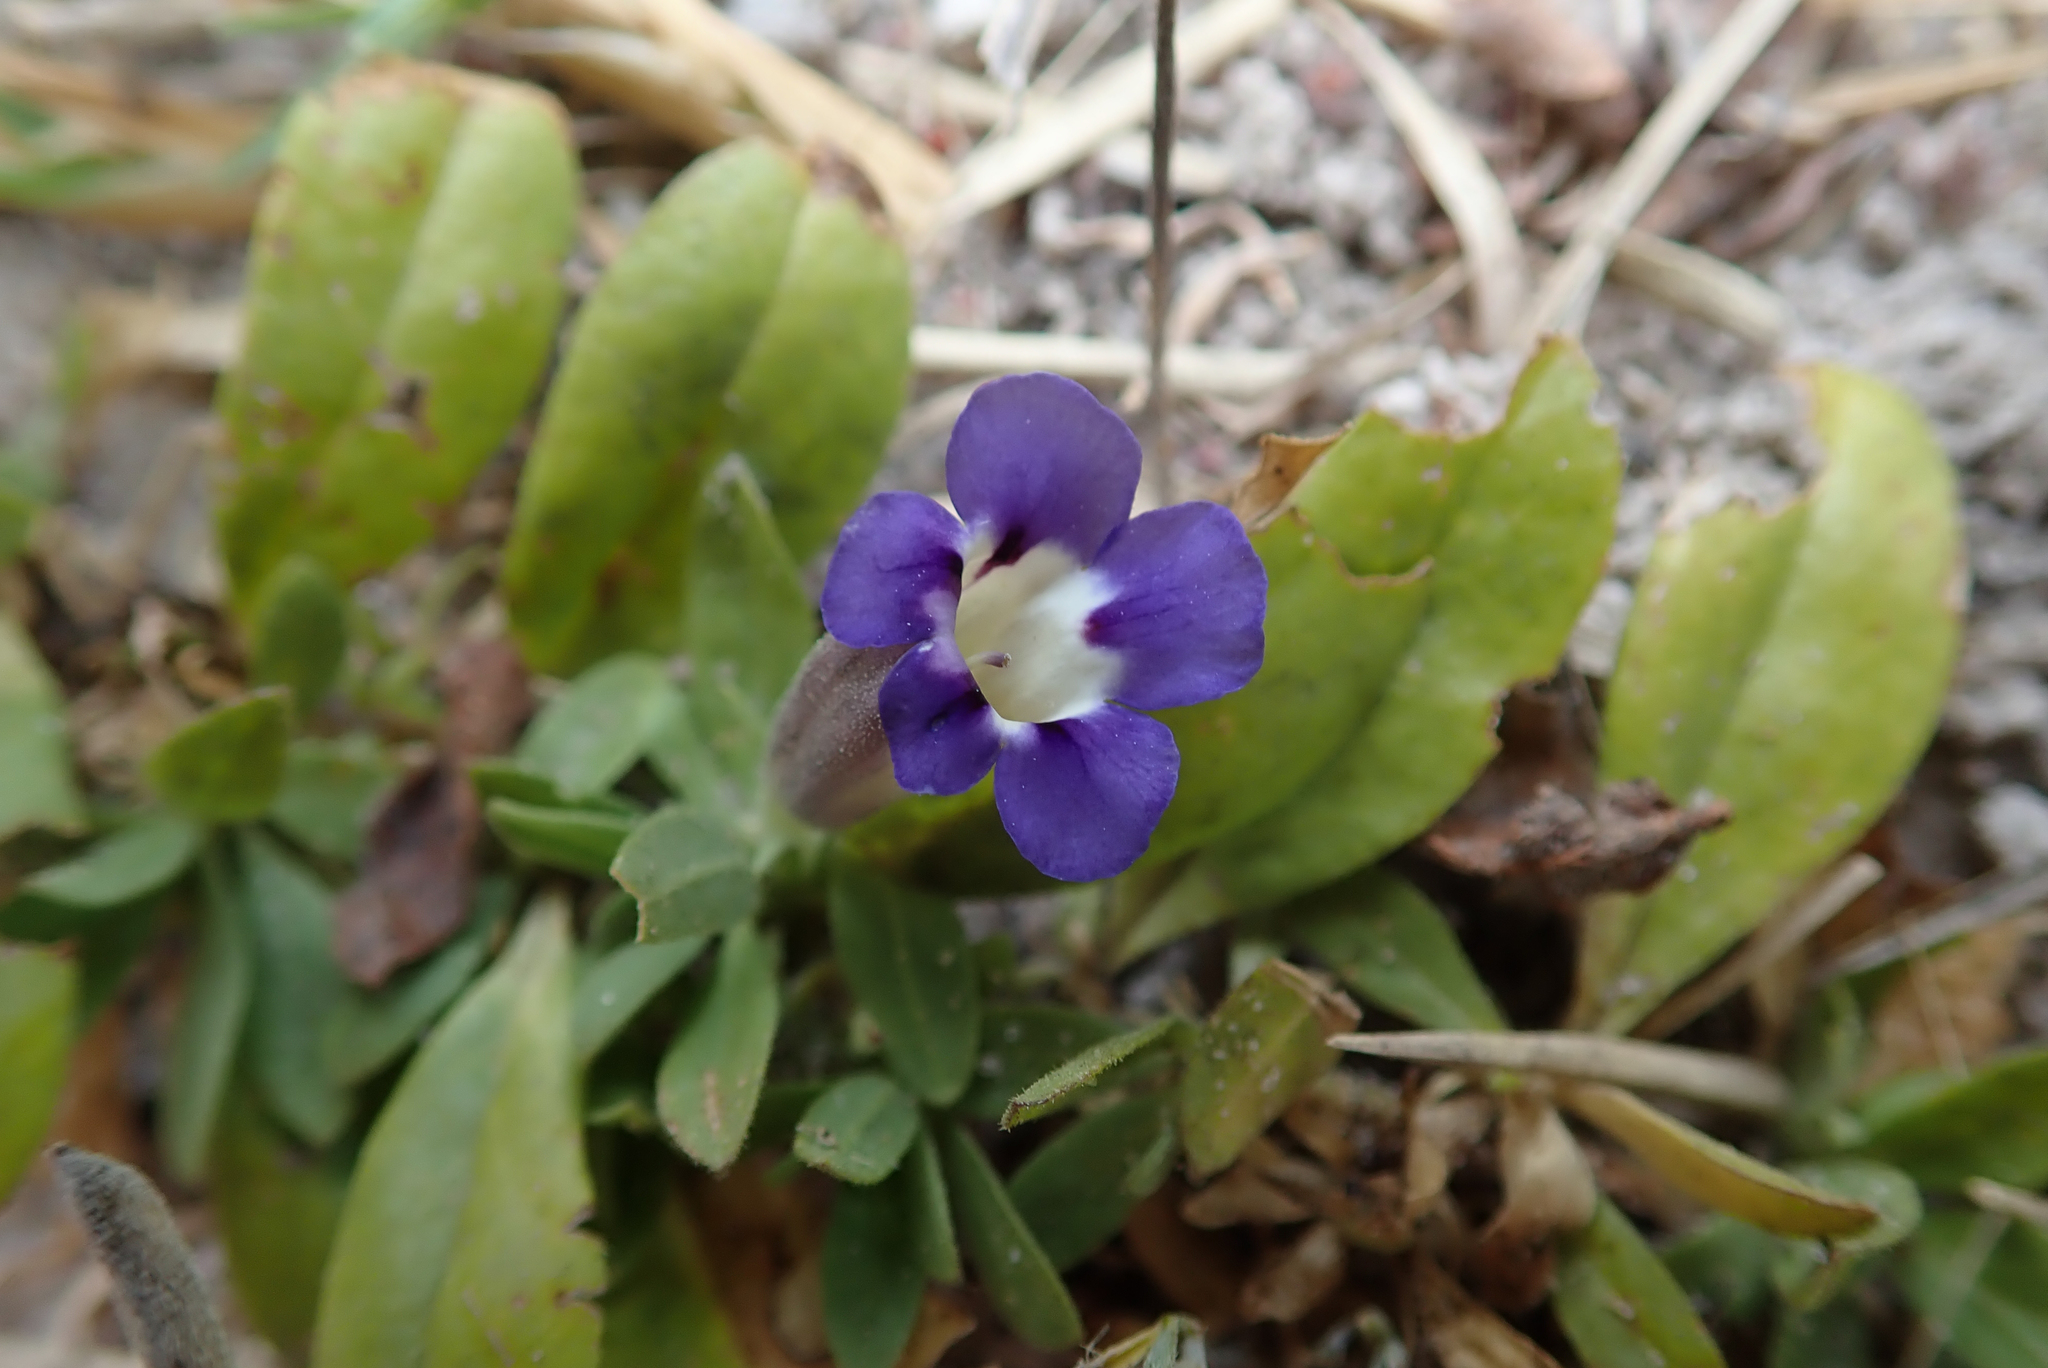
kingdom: Plantae
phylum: Tracheophyta
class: Magnoliopsida
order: Lamiales
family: Scrophulariaceae
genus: Aptosimum
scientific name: Aptosimum decumbens
